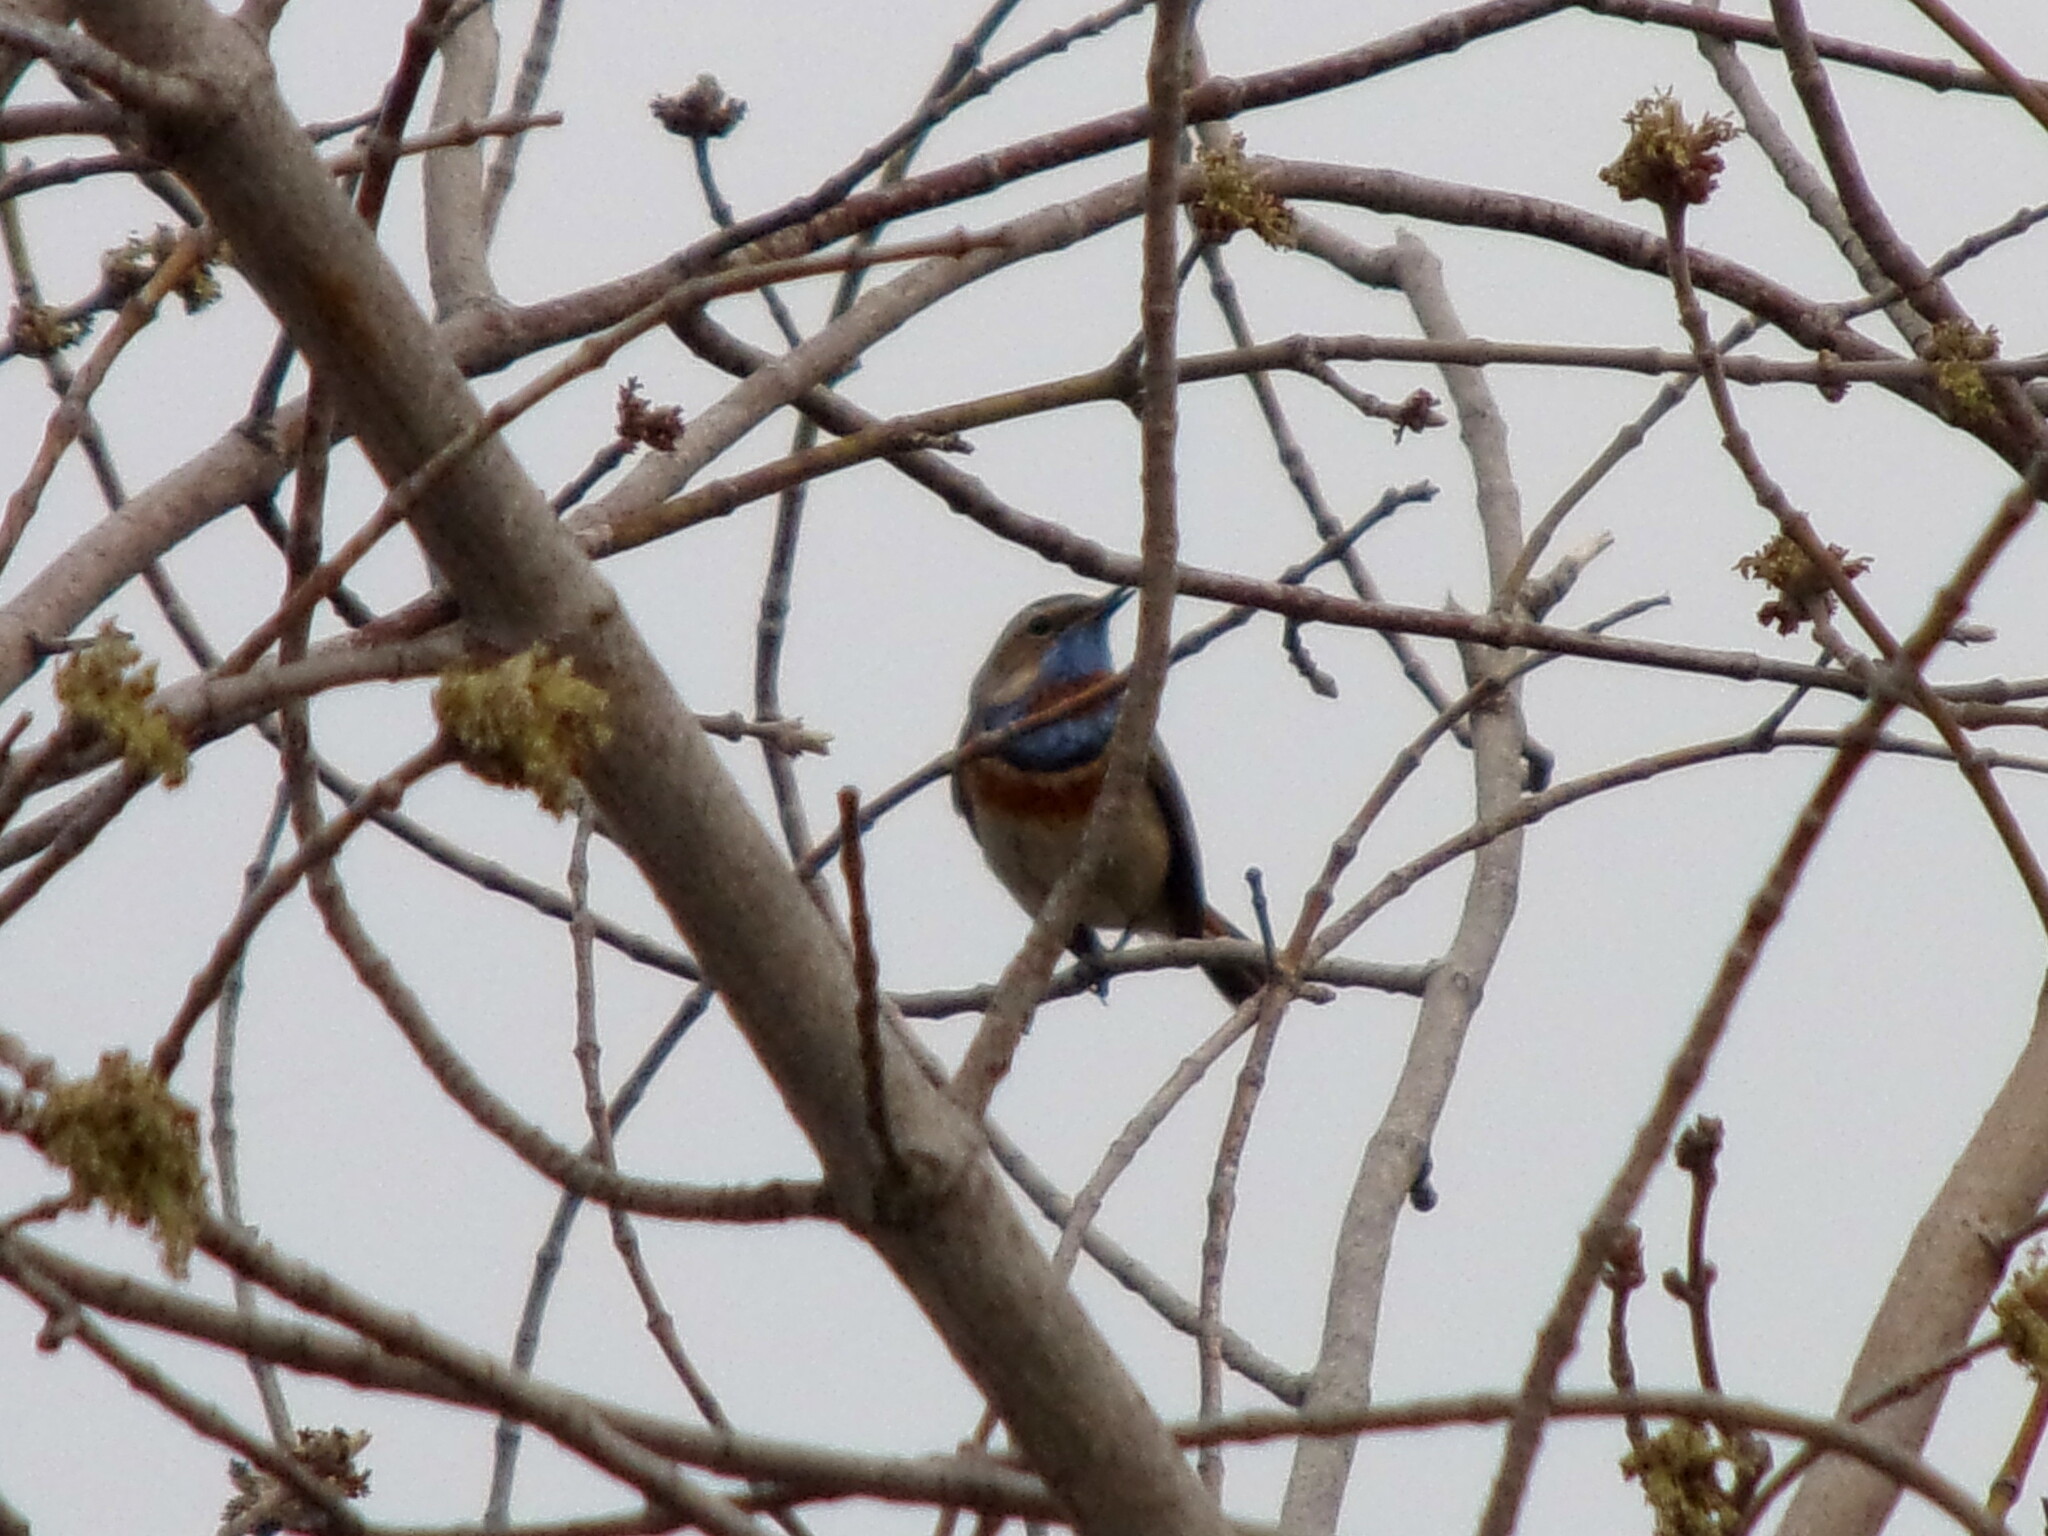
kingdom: Animalia
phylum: Chordata
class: Aves
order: Passeriformes
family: Muscicapidae
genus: Luscinia
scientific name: Luscinia svecica
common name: Bluethroat
